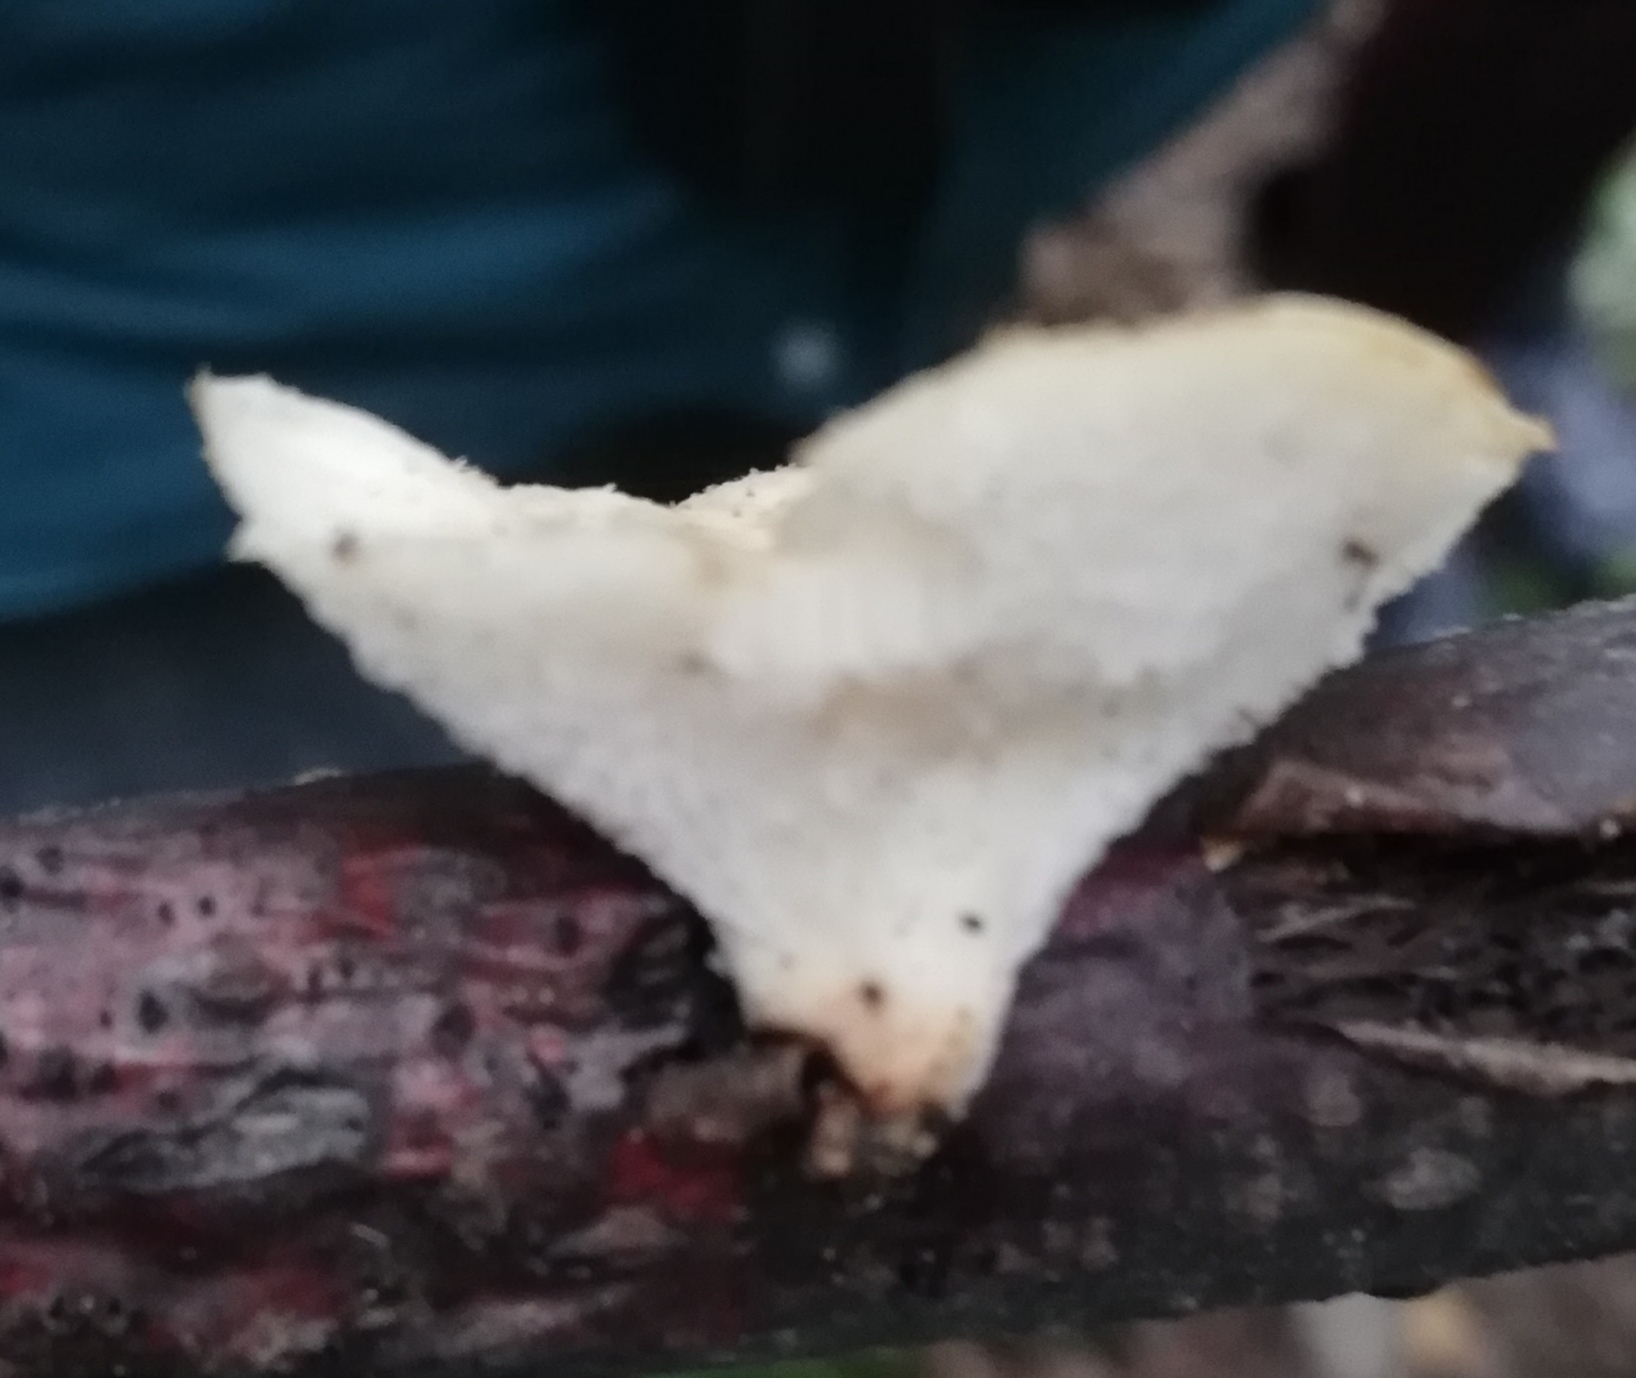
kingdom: Fungi
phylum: Basidiomycota
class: Agaricomycetes
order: Polyporales
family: Polyporaceae
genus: Polyporus
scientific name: Polyporus tuberaster
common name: Tuberous polypore
